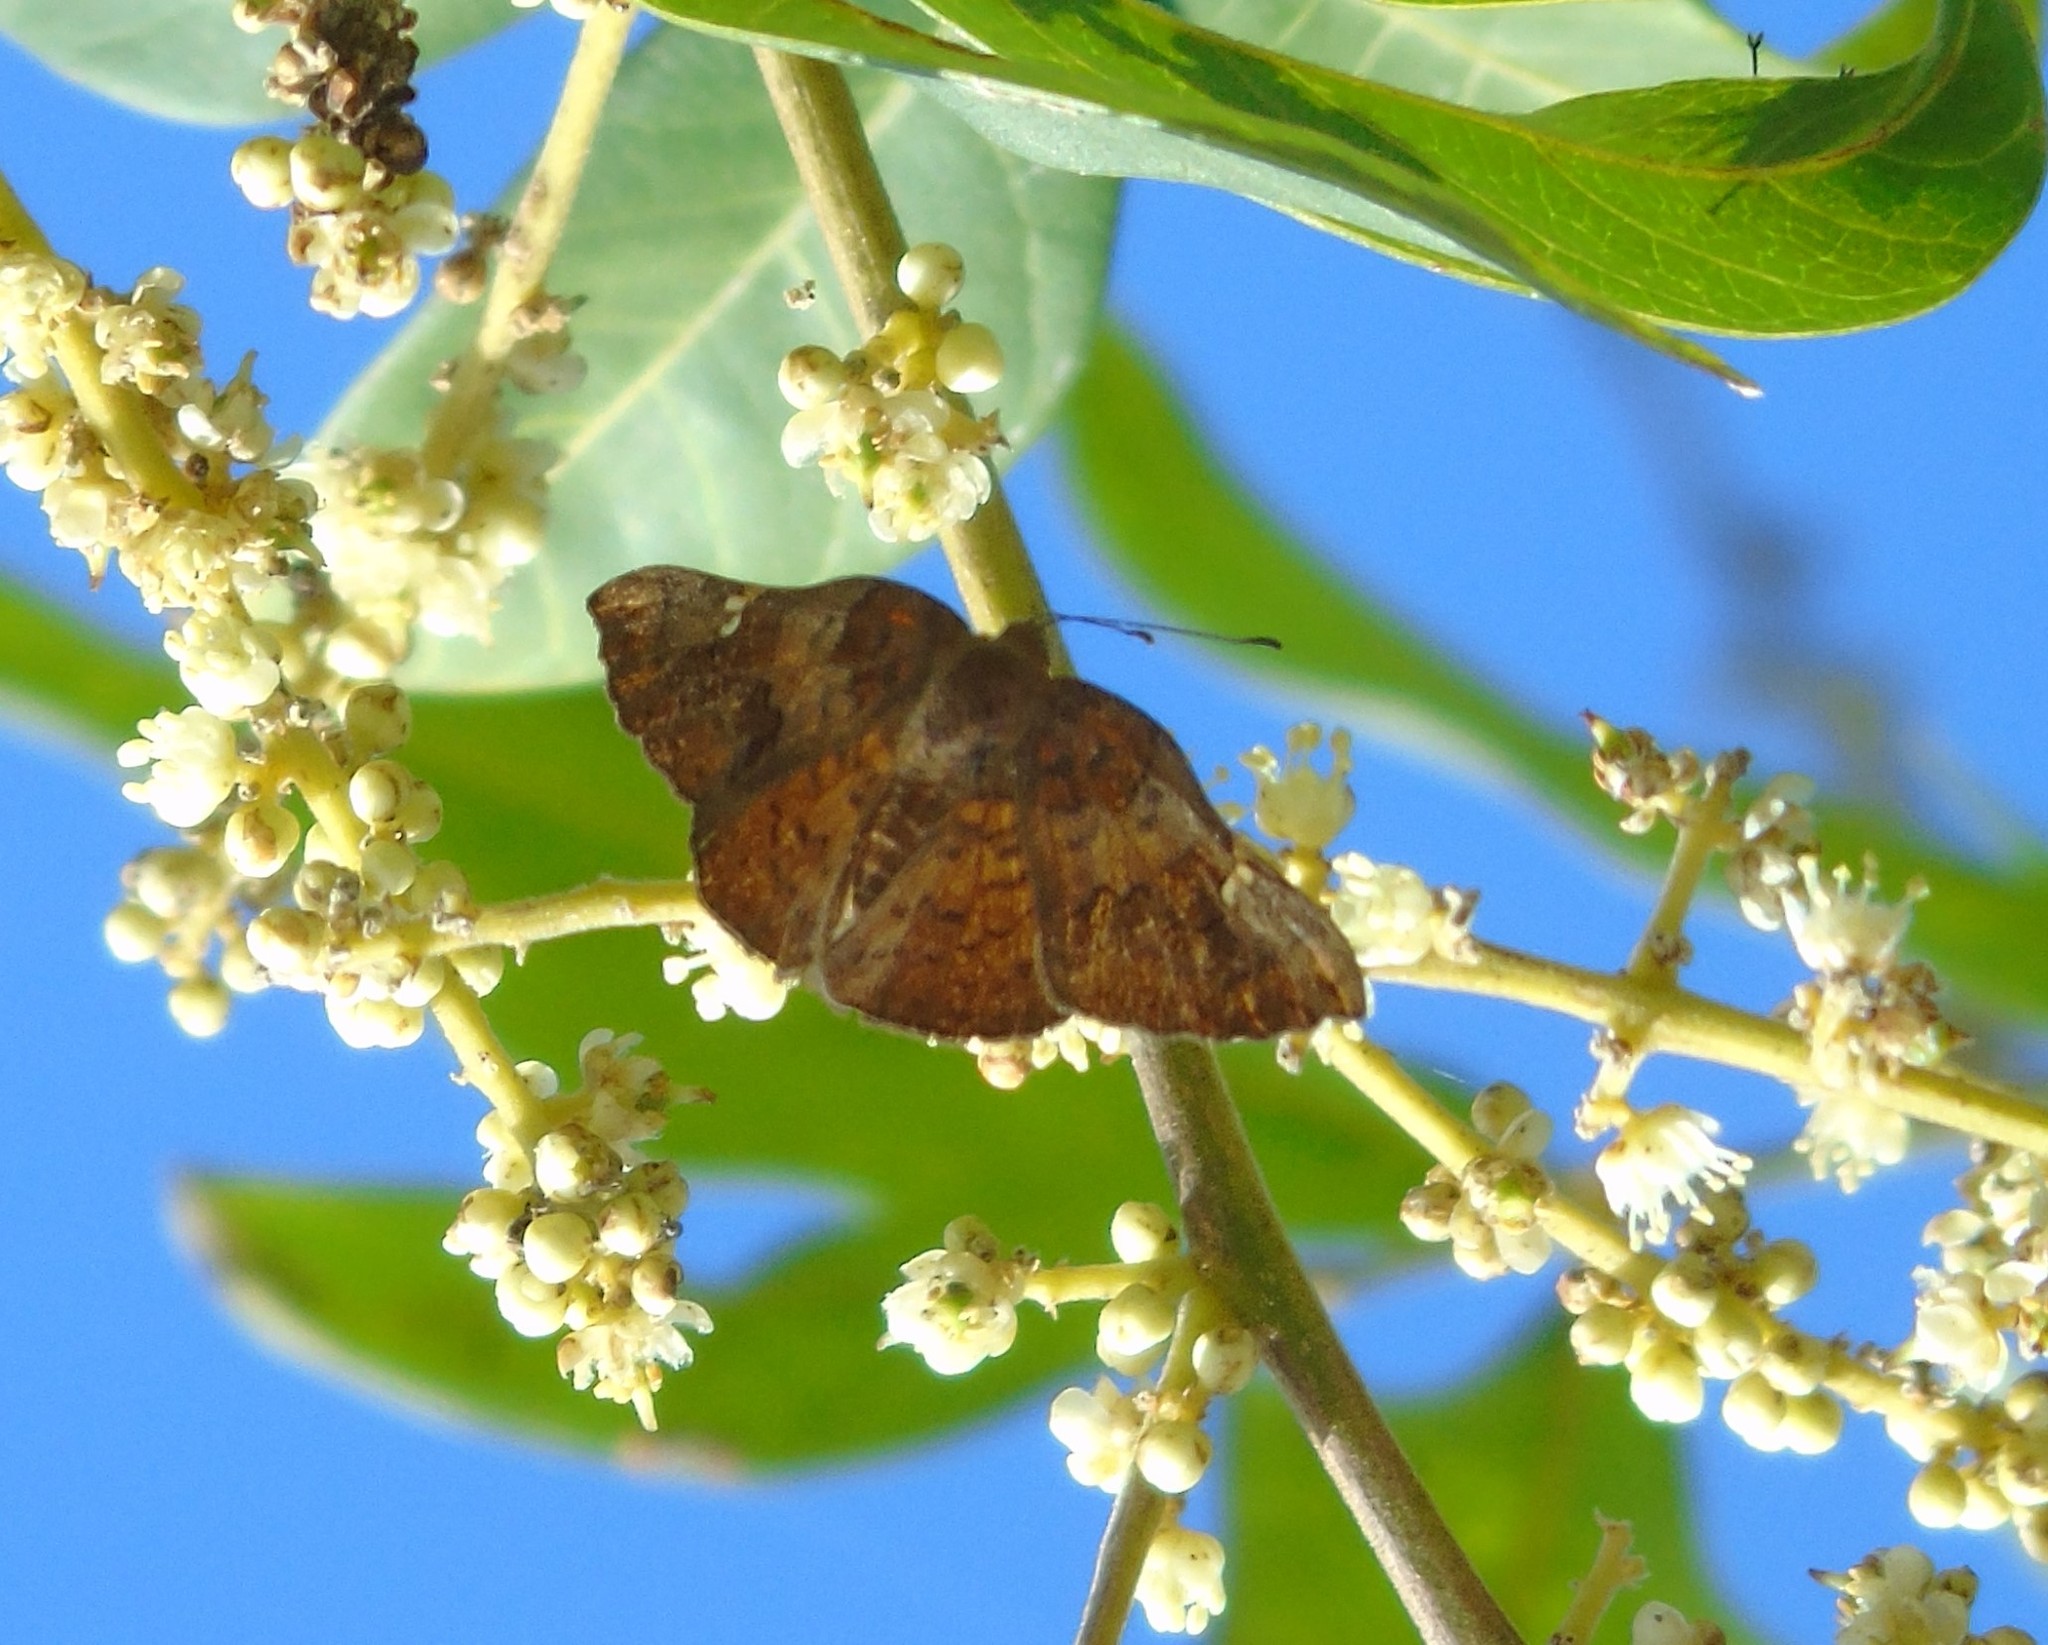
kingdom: Animalia
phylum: Arthropoda
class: Insecta
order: Lepidoptera
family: Riodinidae
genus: Curvie
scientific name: Curvie emesia
